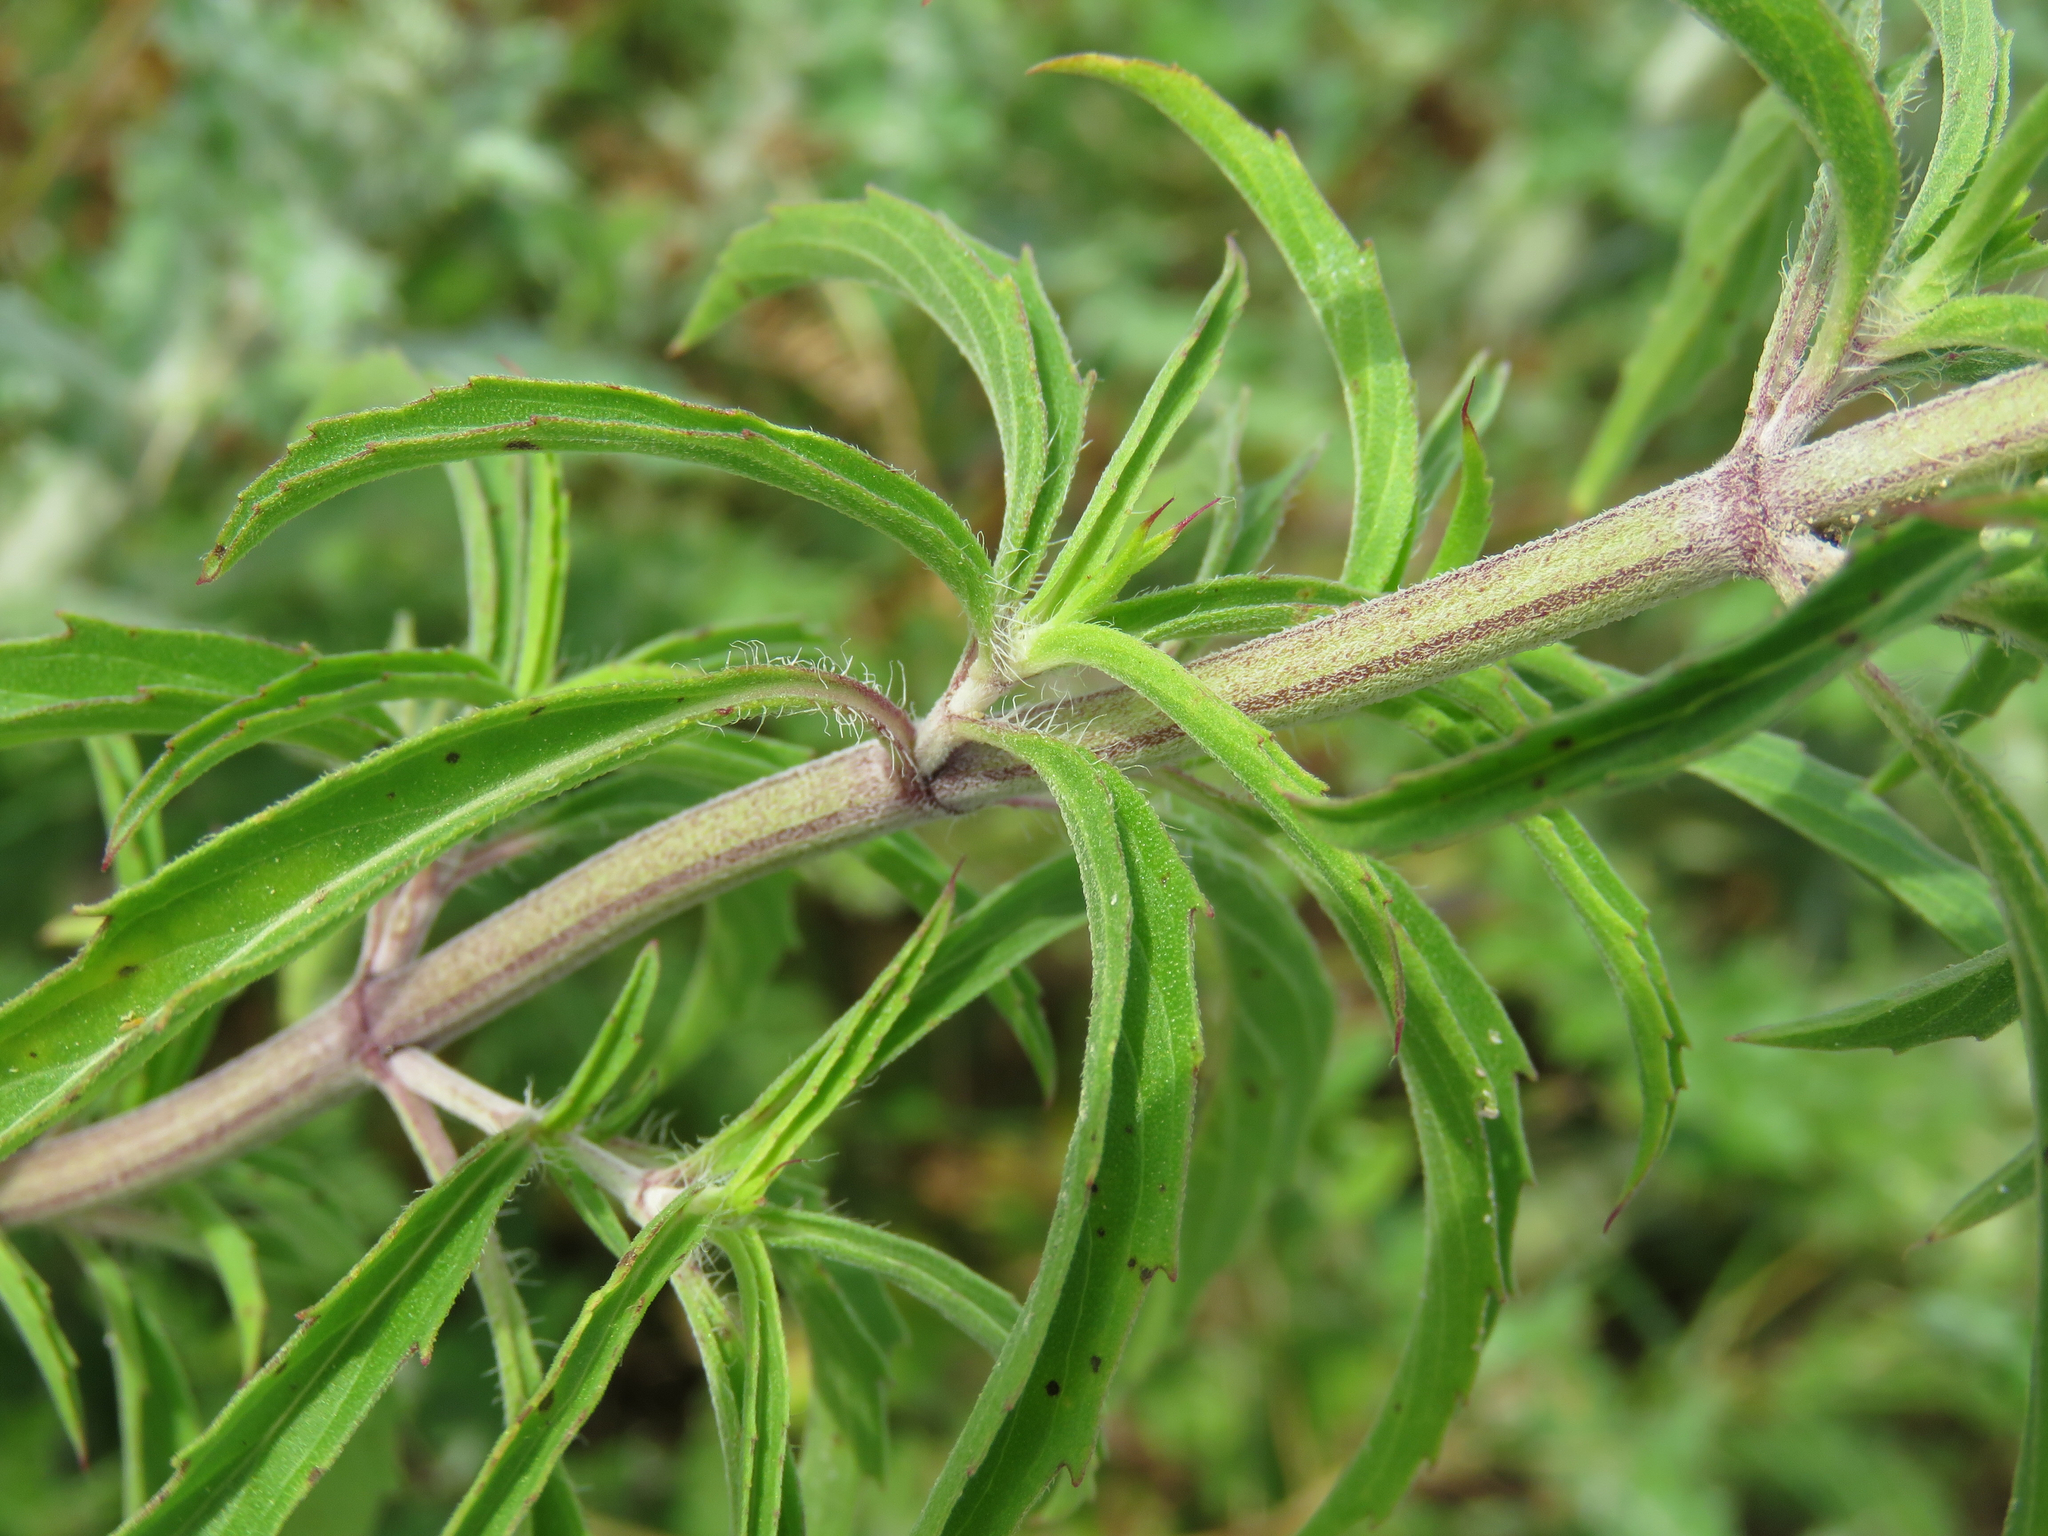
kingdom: Plantae
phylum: Tracheophyta
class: Magnoliopsida
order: Lamiales
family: Lamiaceae
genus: Monarda
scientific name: Monarda citriodora
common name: Lemon beebalm
